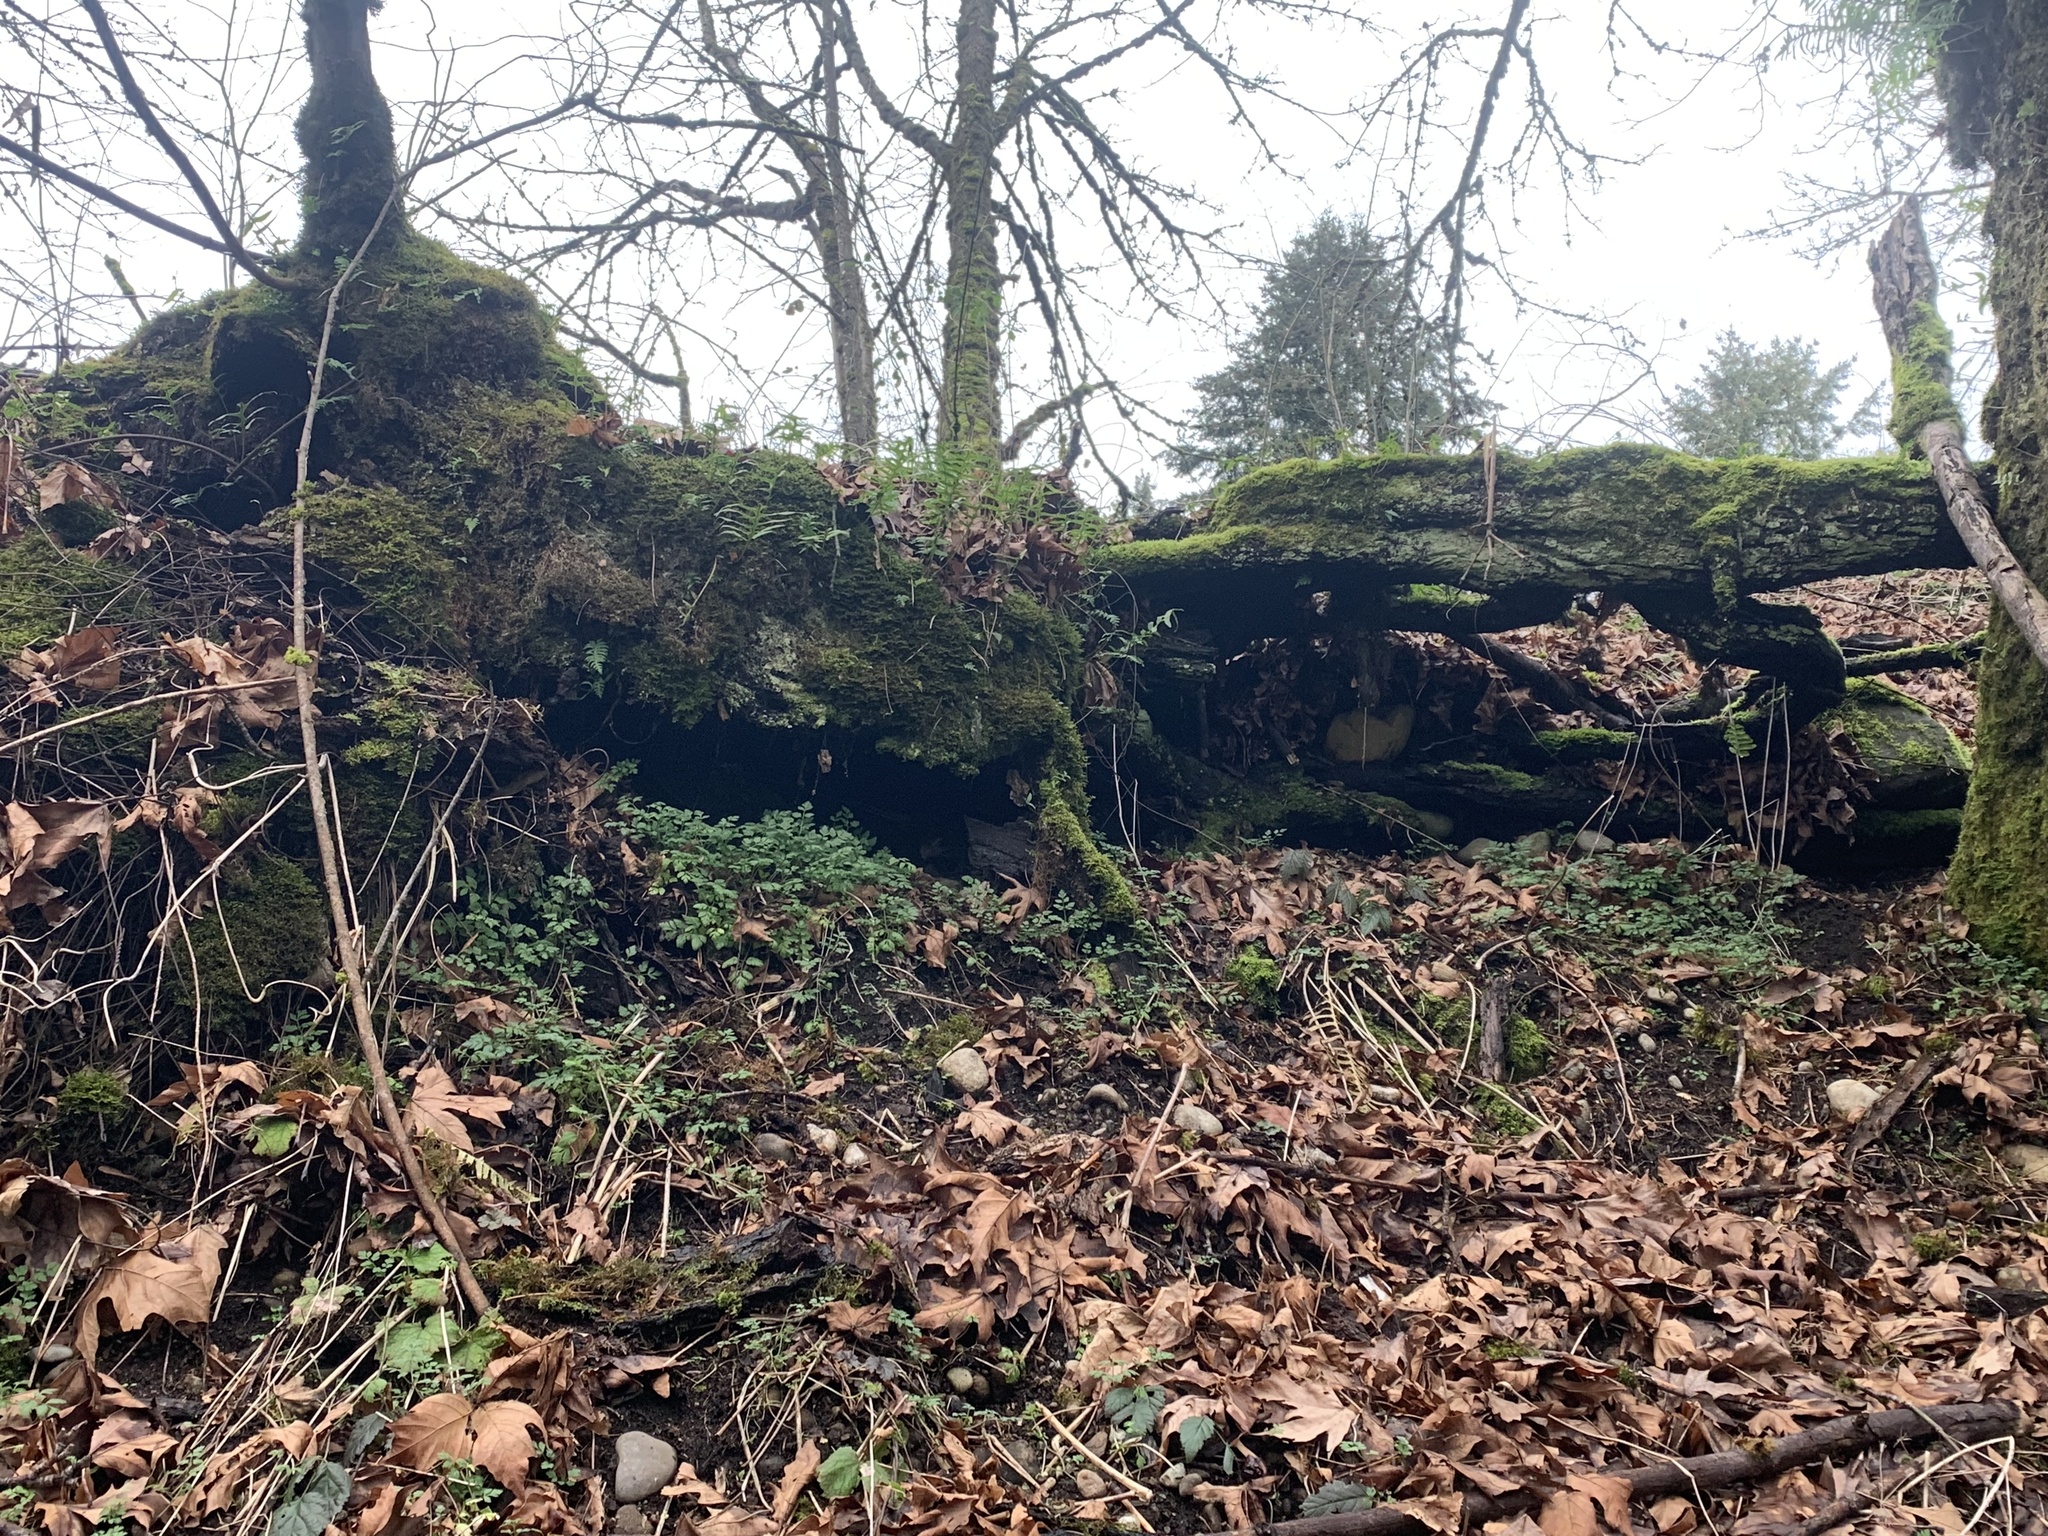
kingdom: Plantae
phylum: Tracheophyta
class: Magnoliopsida
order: Apiales
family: Apiaceae
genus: Chaerophyllum
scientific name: Chaerophyllum temulum
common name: Rough chervil
